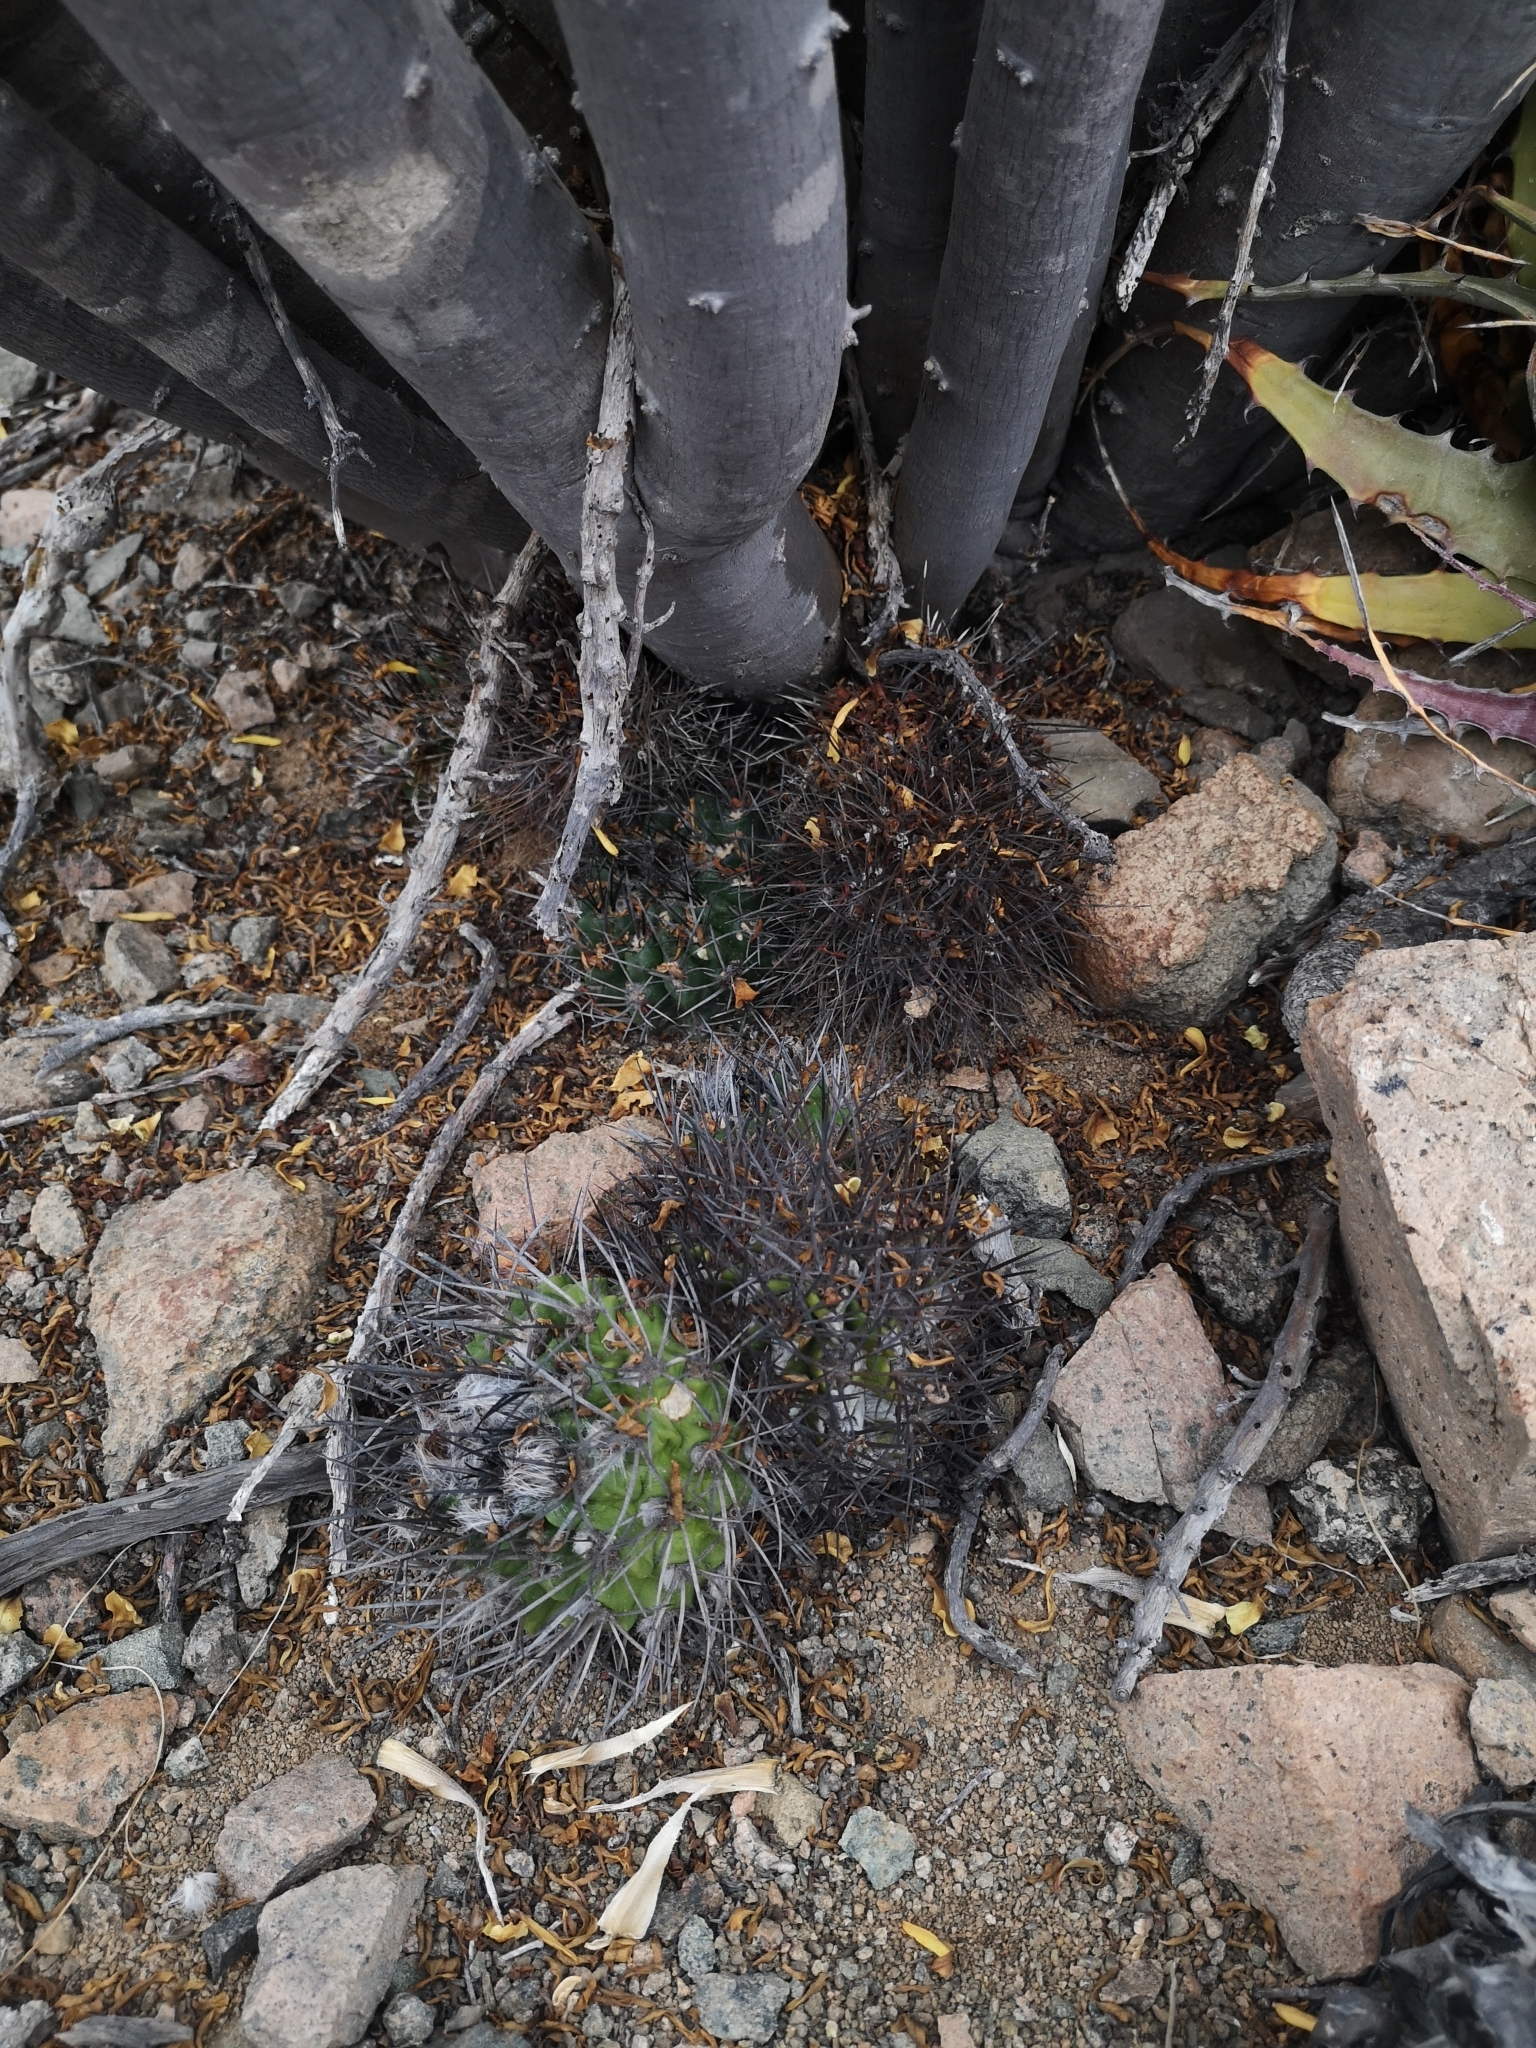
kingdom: Plantae
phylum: Tracheophyta
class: Magnoliopsida
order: Caryophyllales
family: Cactaceae
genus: Eriosyce
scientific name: Eriosyce paucicostata
